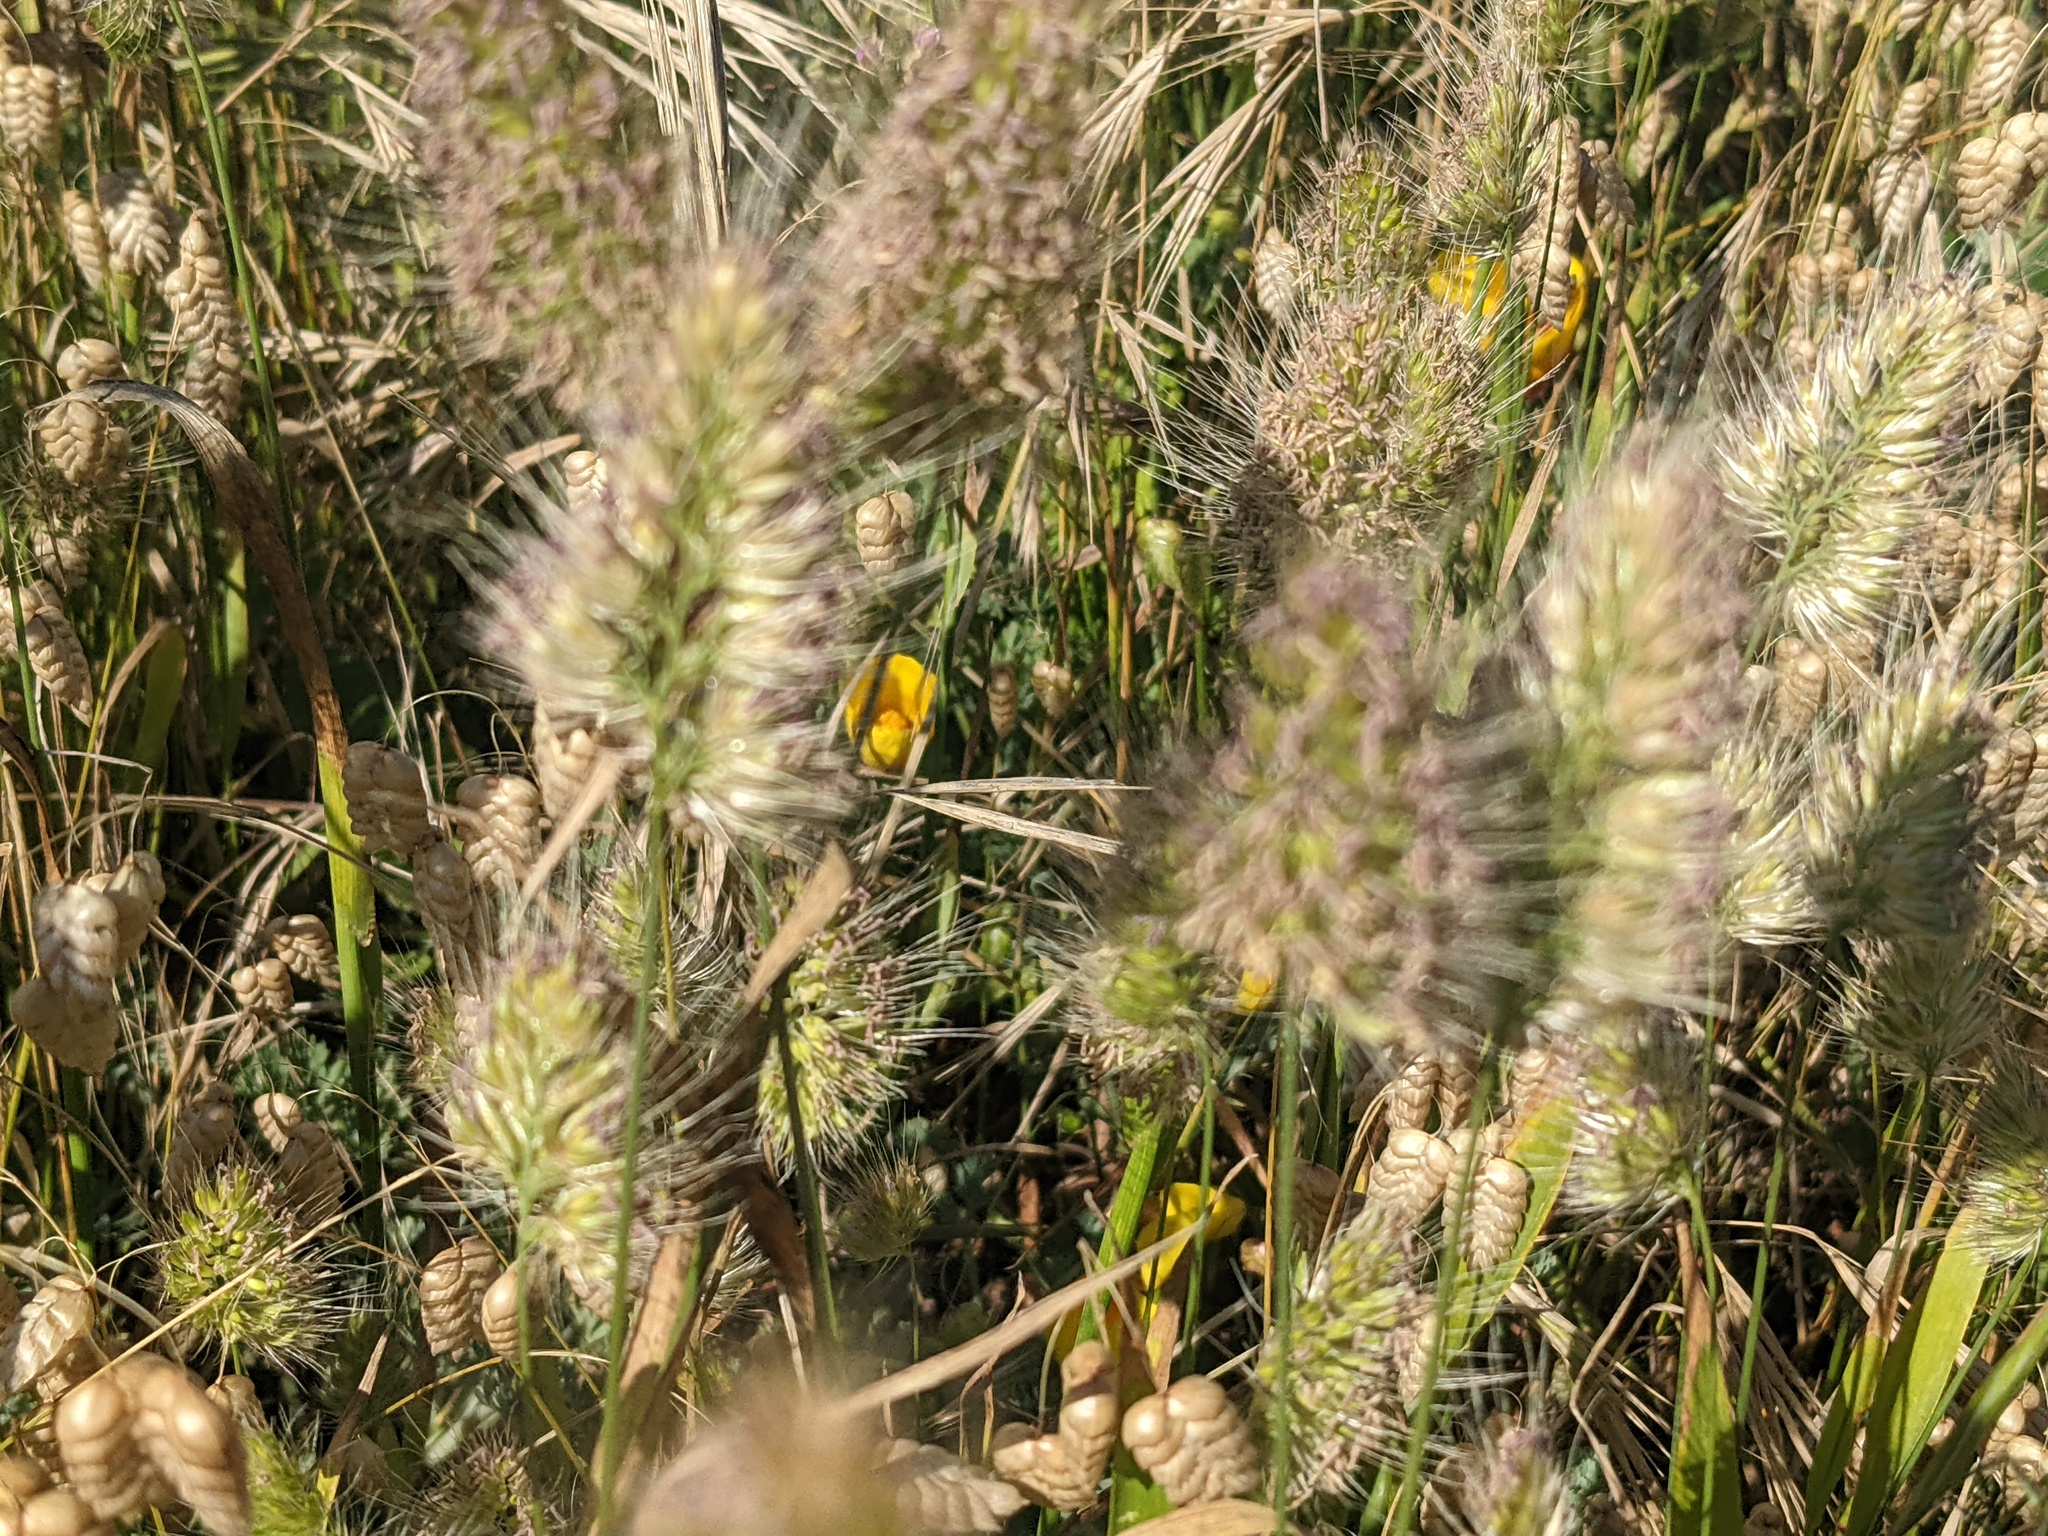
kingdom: Plantae
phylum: Tracheophyta
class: Liliopsida
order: Poales
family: Poaceae
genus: Cynosurus
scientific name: Cynosurus echinatus
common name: Rough dog's-tail
